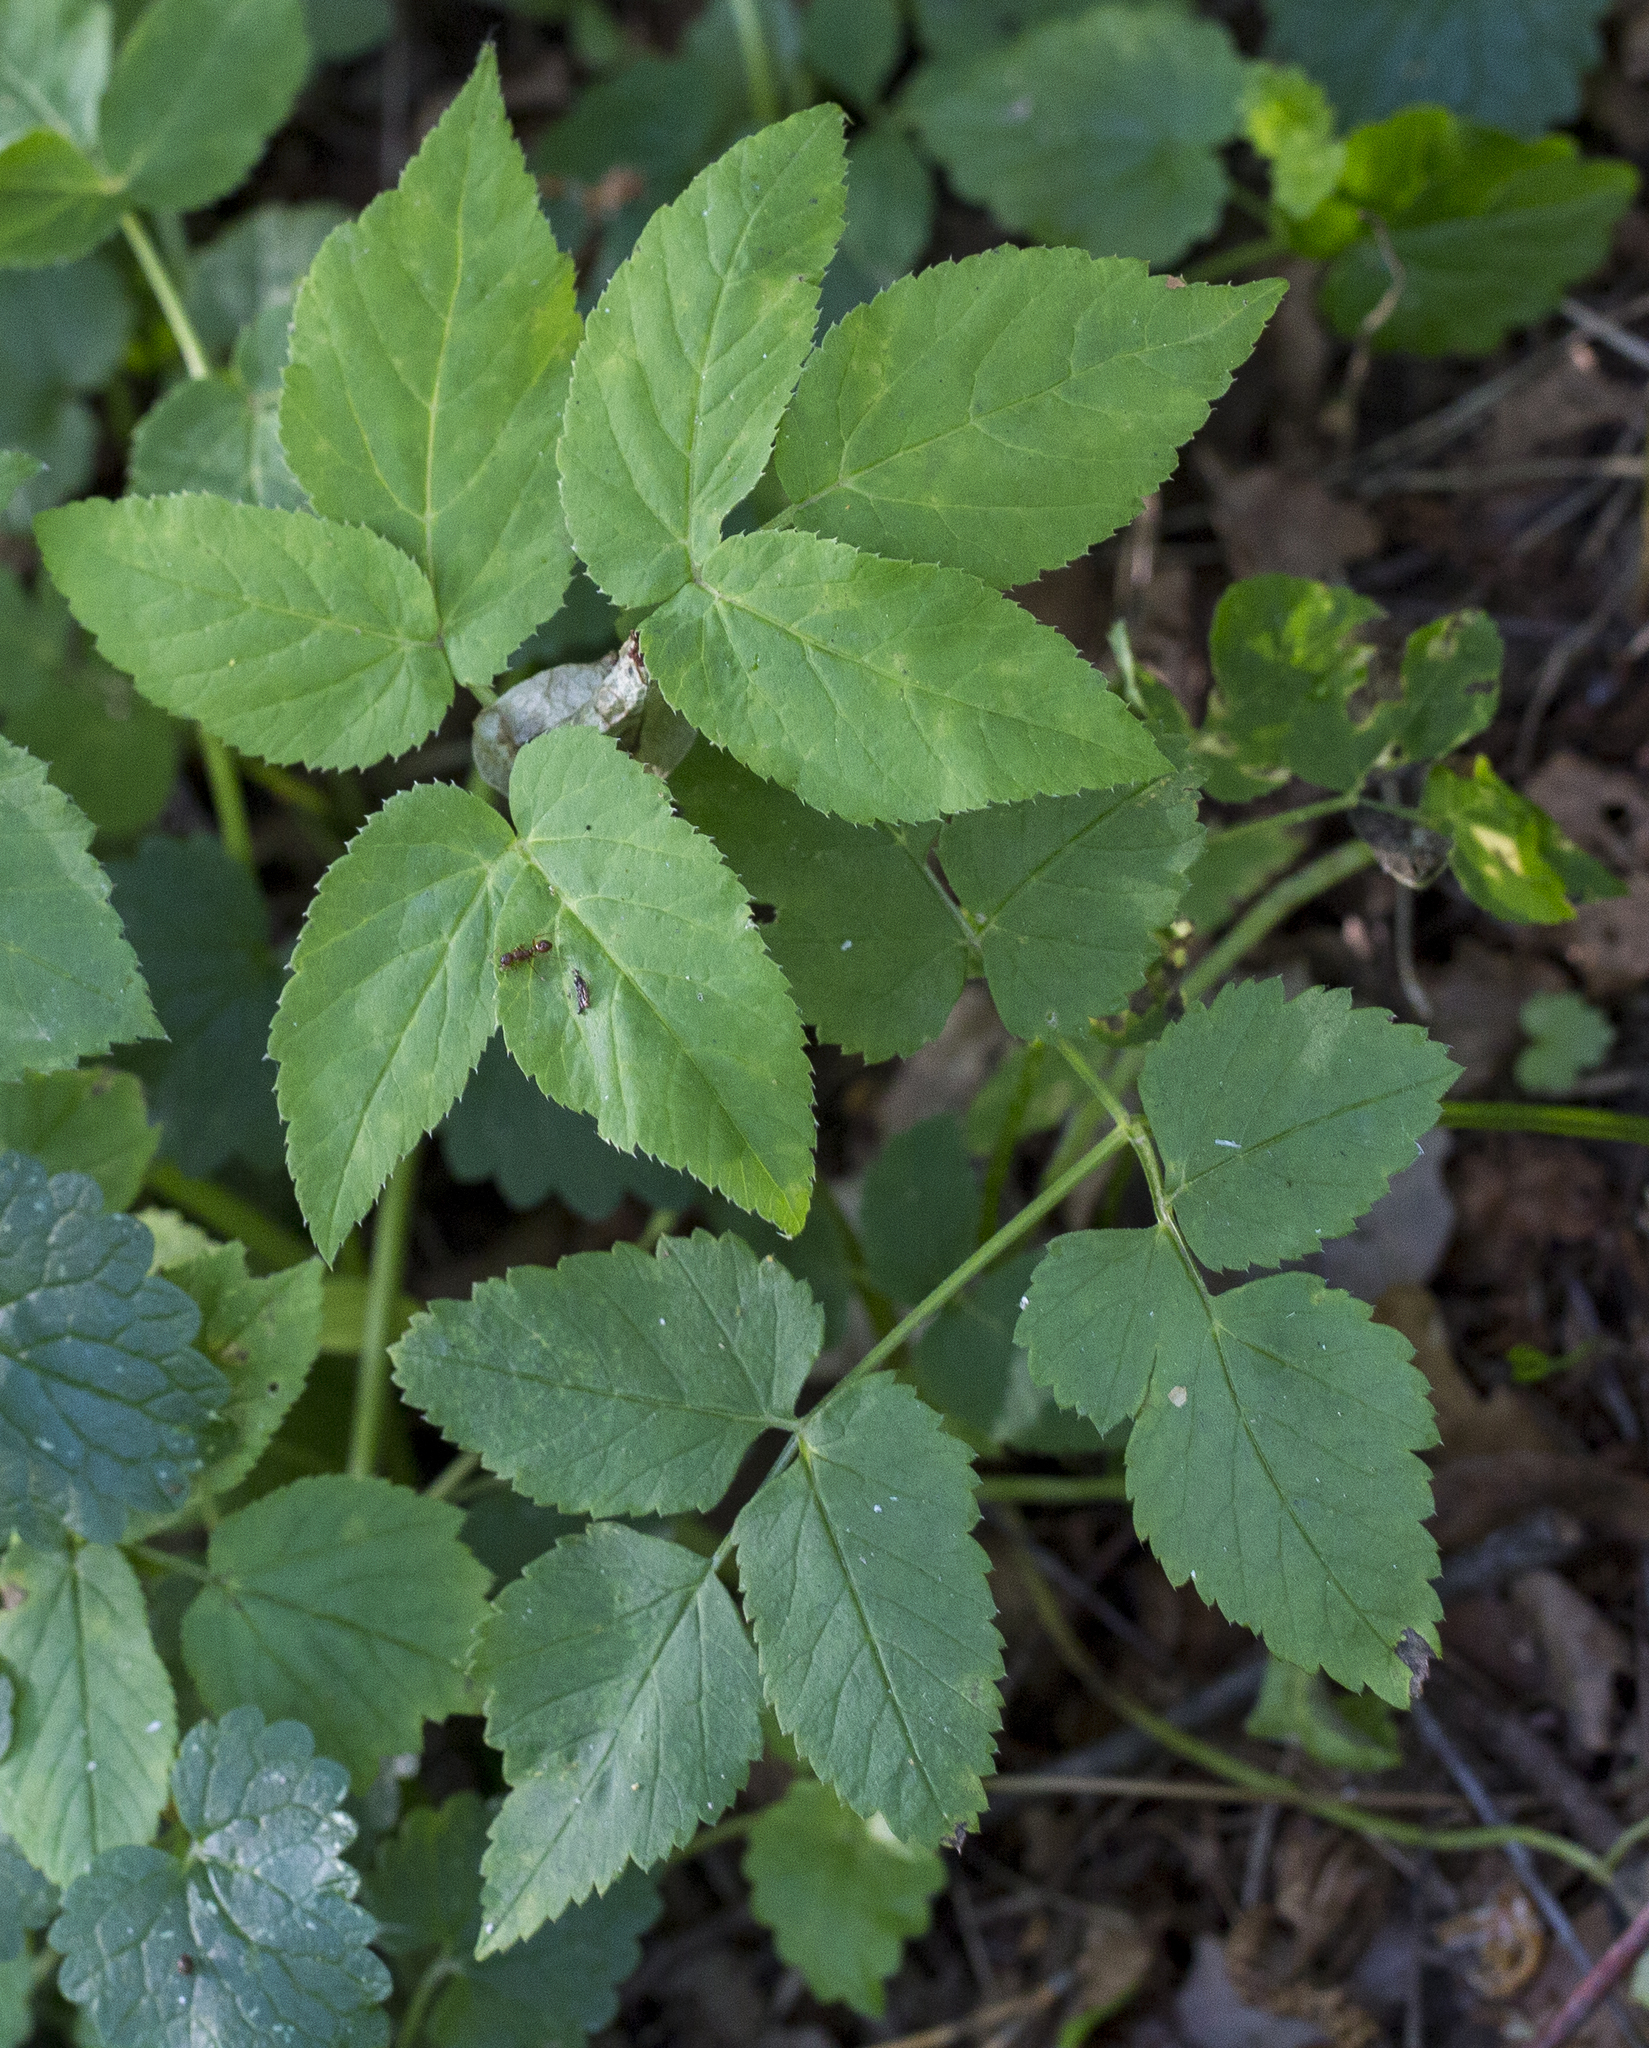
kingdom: Plantae
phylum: Tracheophyta
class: Magnoliopsida
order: Apiales
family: Apiaceae
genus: Aegopodium
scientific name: Aegopodium podagraria
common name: Ground-elder
